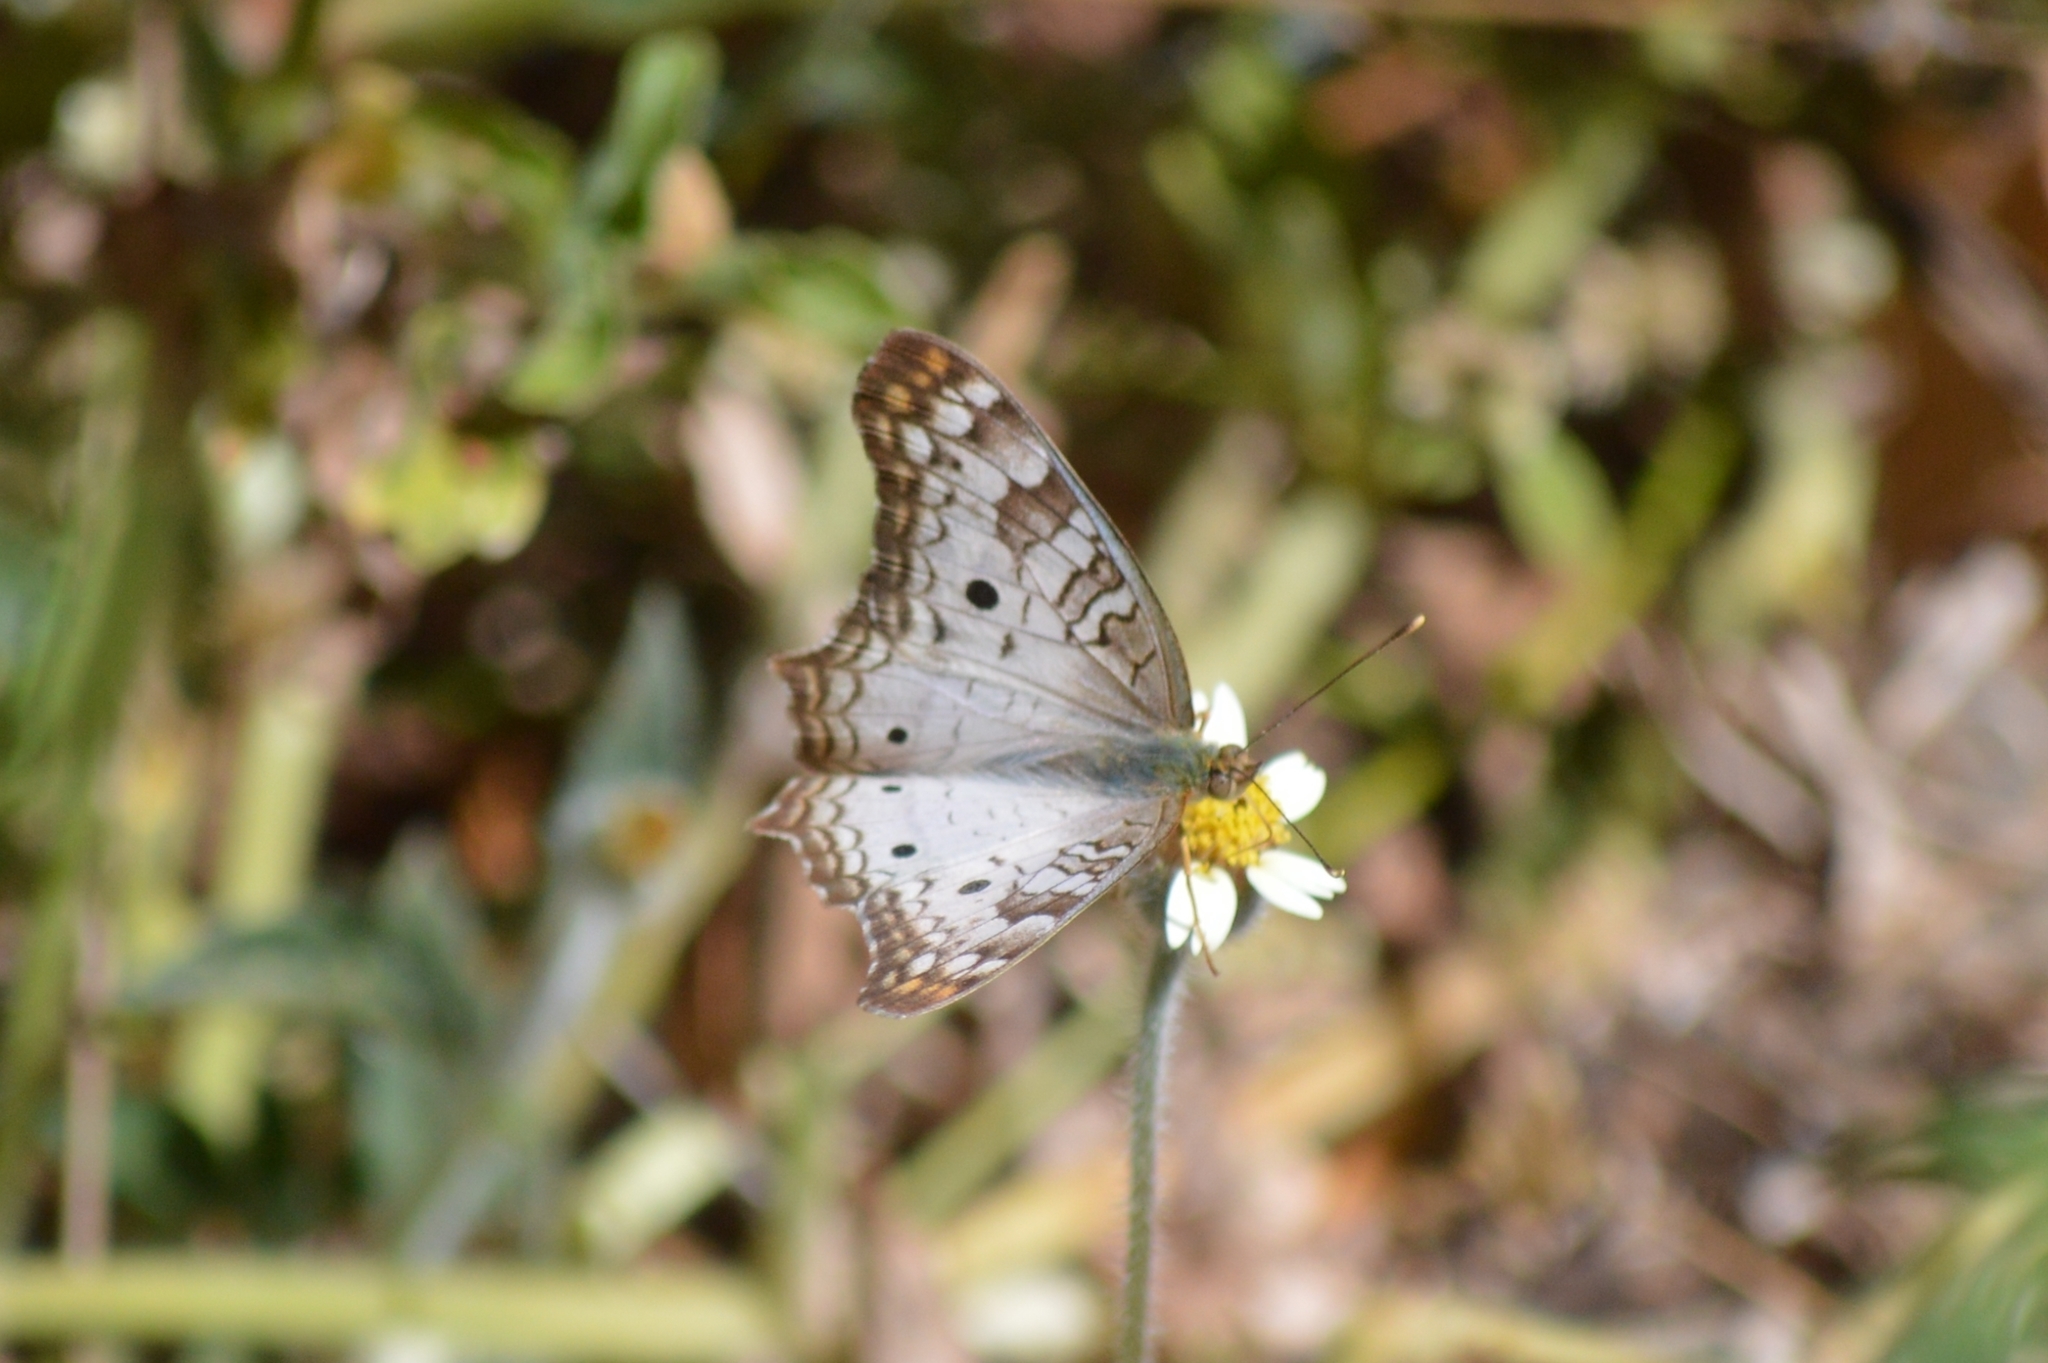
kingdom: Animalia
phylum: Arthropoda
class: Insecta
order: Lepidoptera
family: Nymphalidae
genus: Anartia
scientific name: Anartia jatrophae
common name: White peacock
